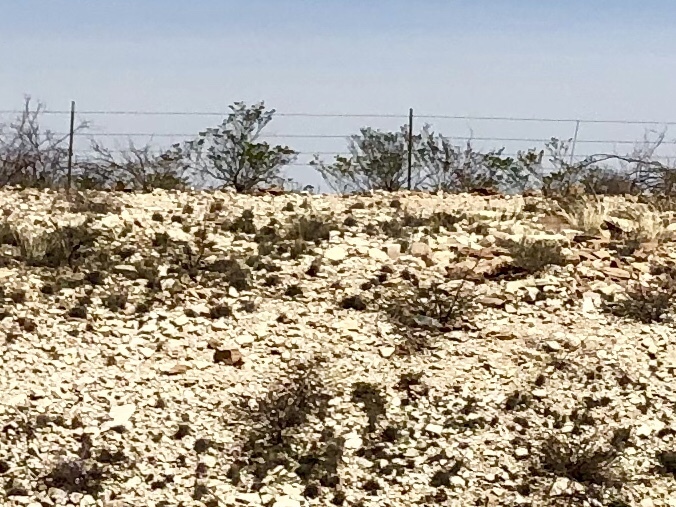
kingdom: Plantae
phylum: Tracheophyta
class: Magnoliopsida
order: Zygophyllales
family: Zygophyllaceae
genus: Larrea
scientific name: Larrea tridentata
